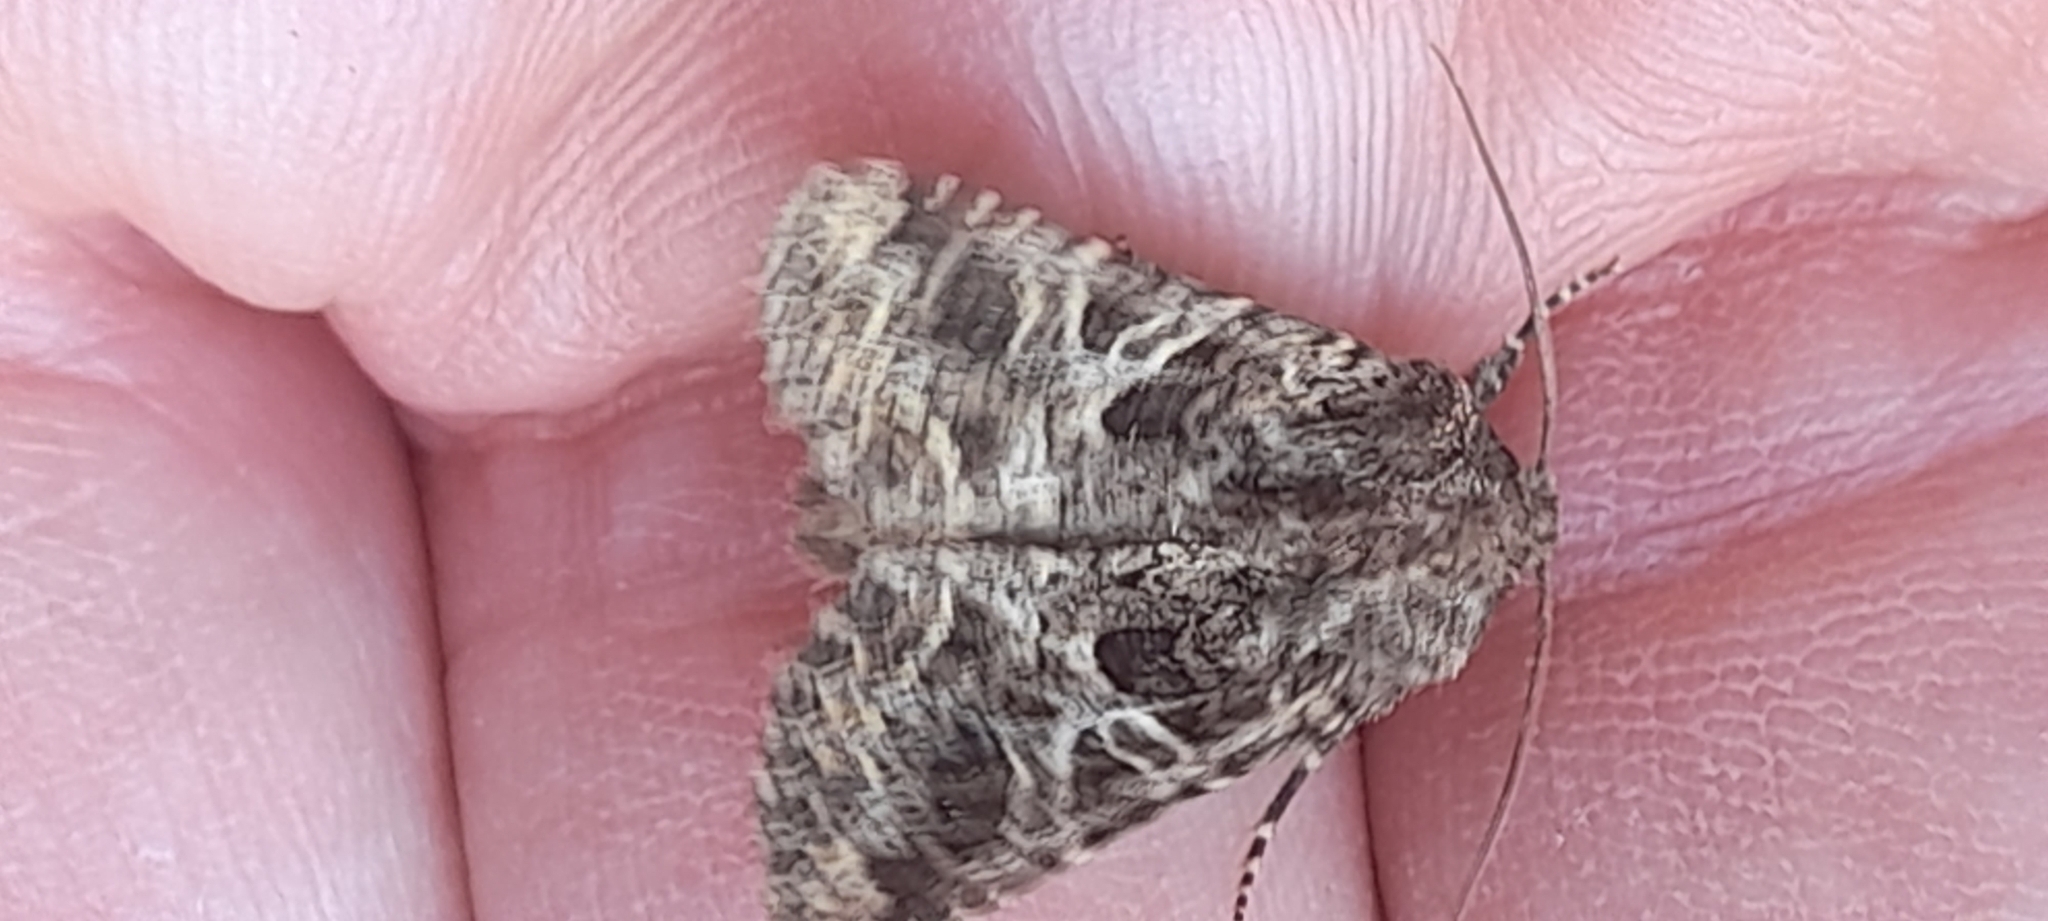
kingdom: Animalia
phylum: Arthropoda
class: Insecta
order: Lepidoptera
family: Noctuidae
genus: Hadena
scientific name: Hadena bicruris
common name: Lychnis
